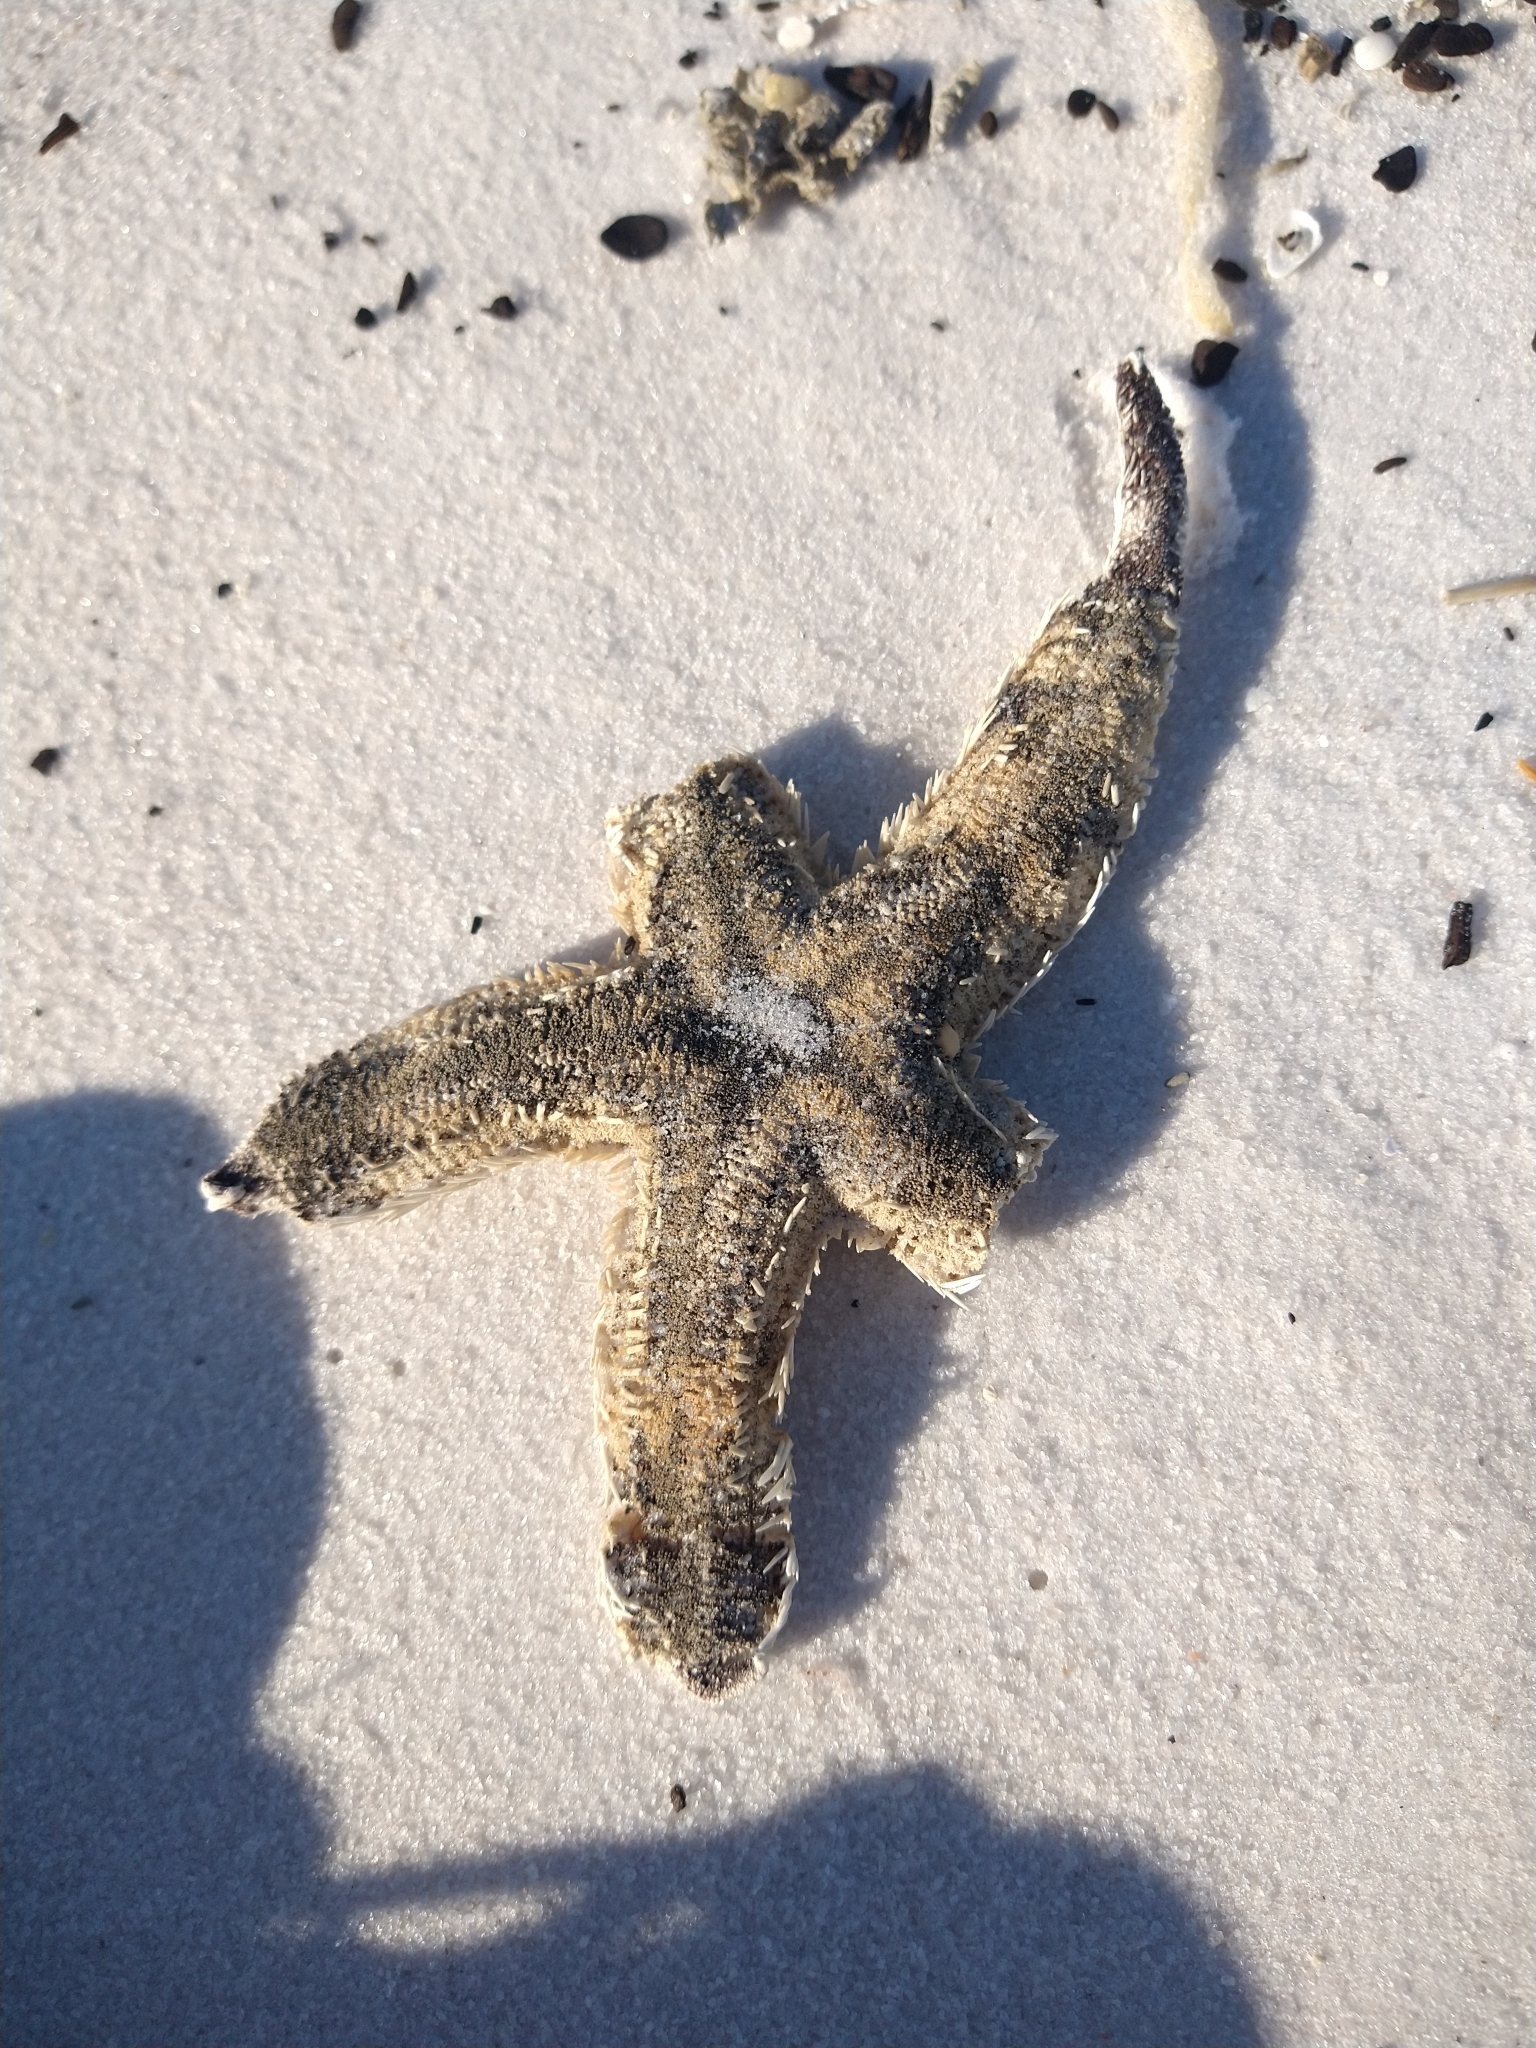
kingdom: Animalia
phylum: Echinodermata
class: Asteroidea
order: Paxillosida
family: Luidiidae
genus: Luidia
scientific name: Luidia alternata
